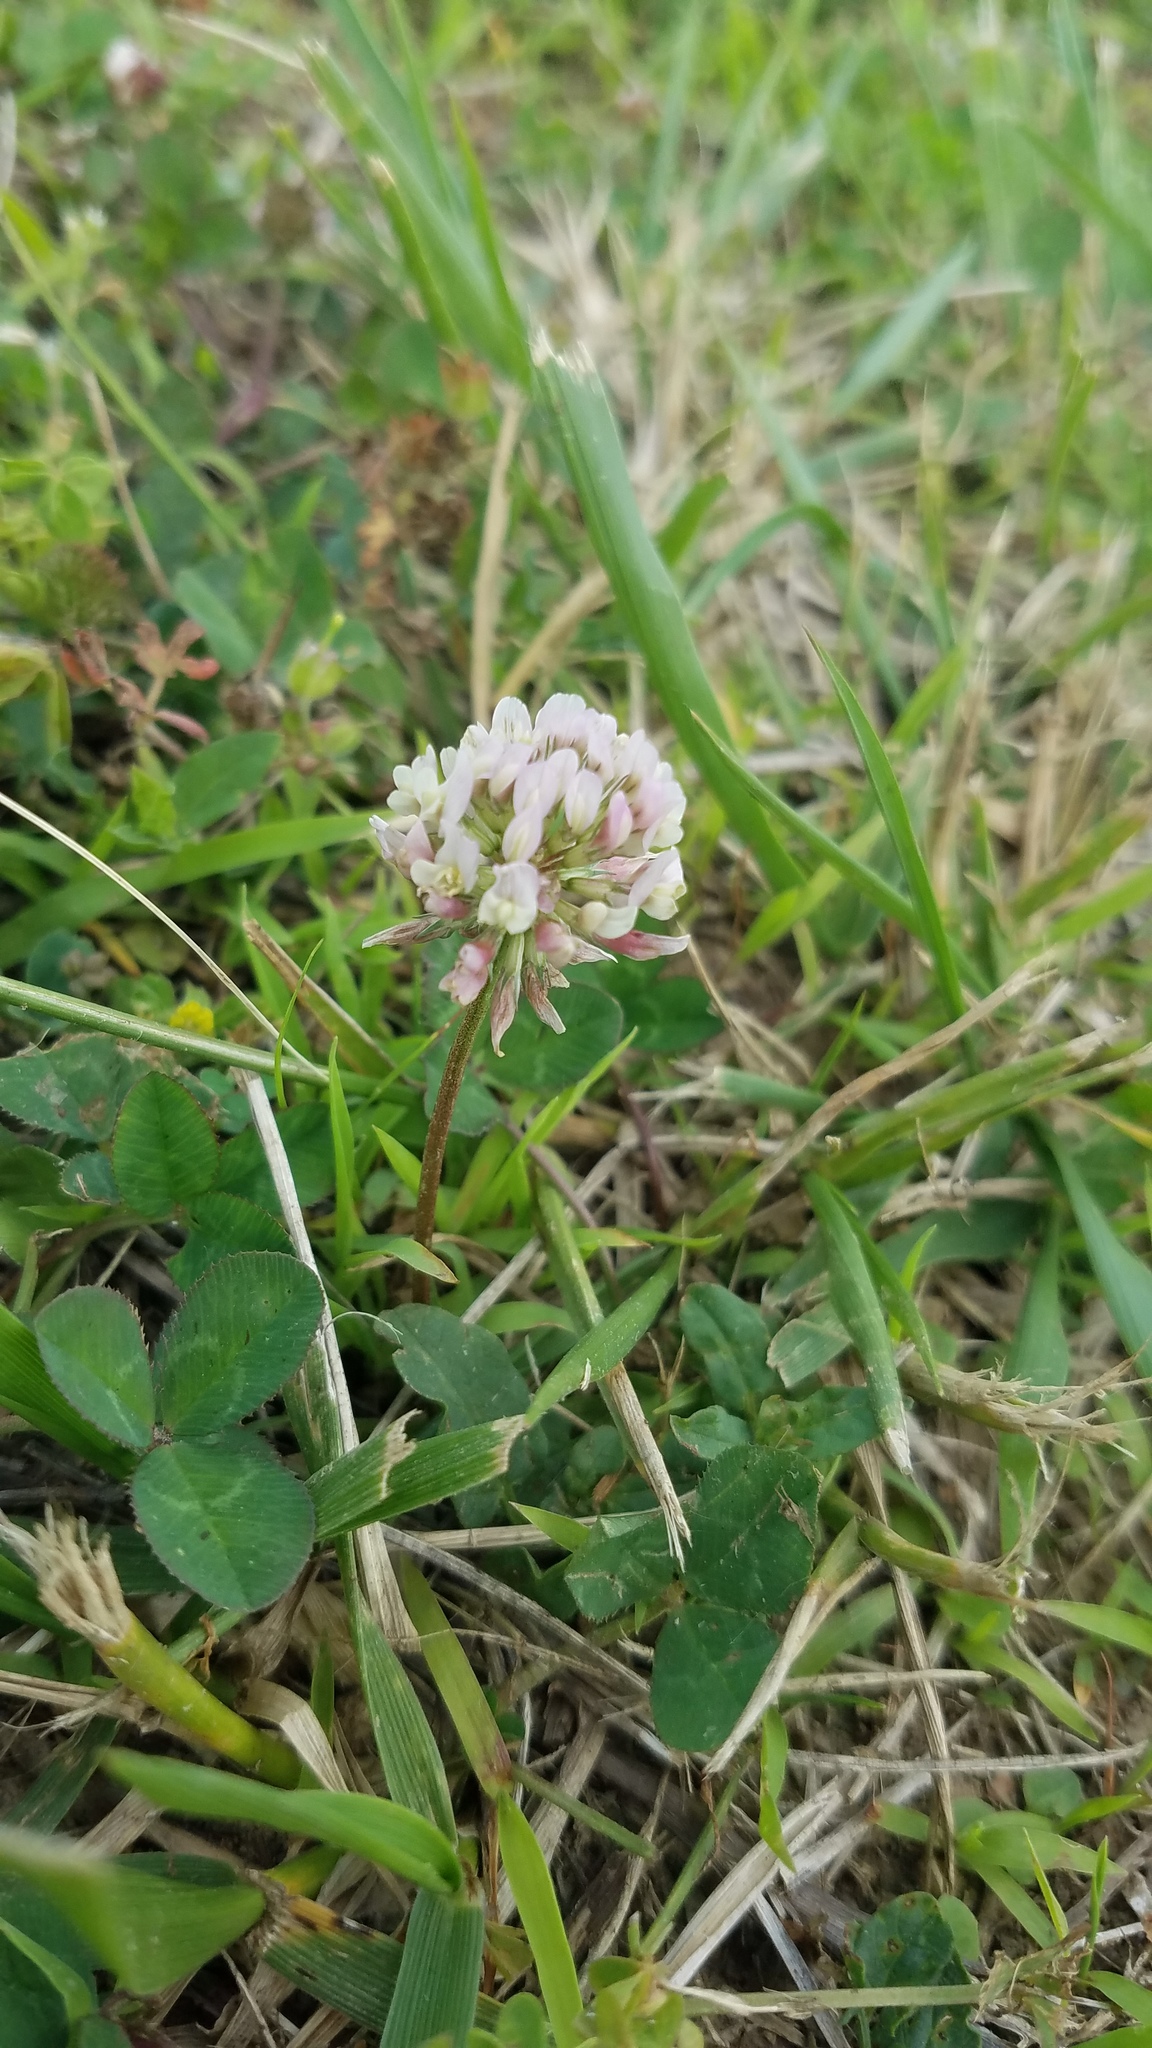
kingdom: Plantae
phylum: Tracheophyta
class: Magnoliopsida
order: Fabales
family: Fabaceae
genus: Trifolium
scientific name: Trifolium repens
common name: White clover
